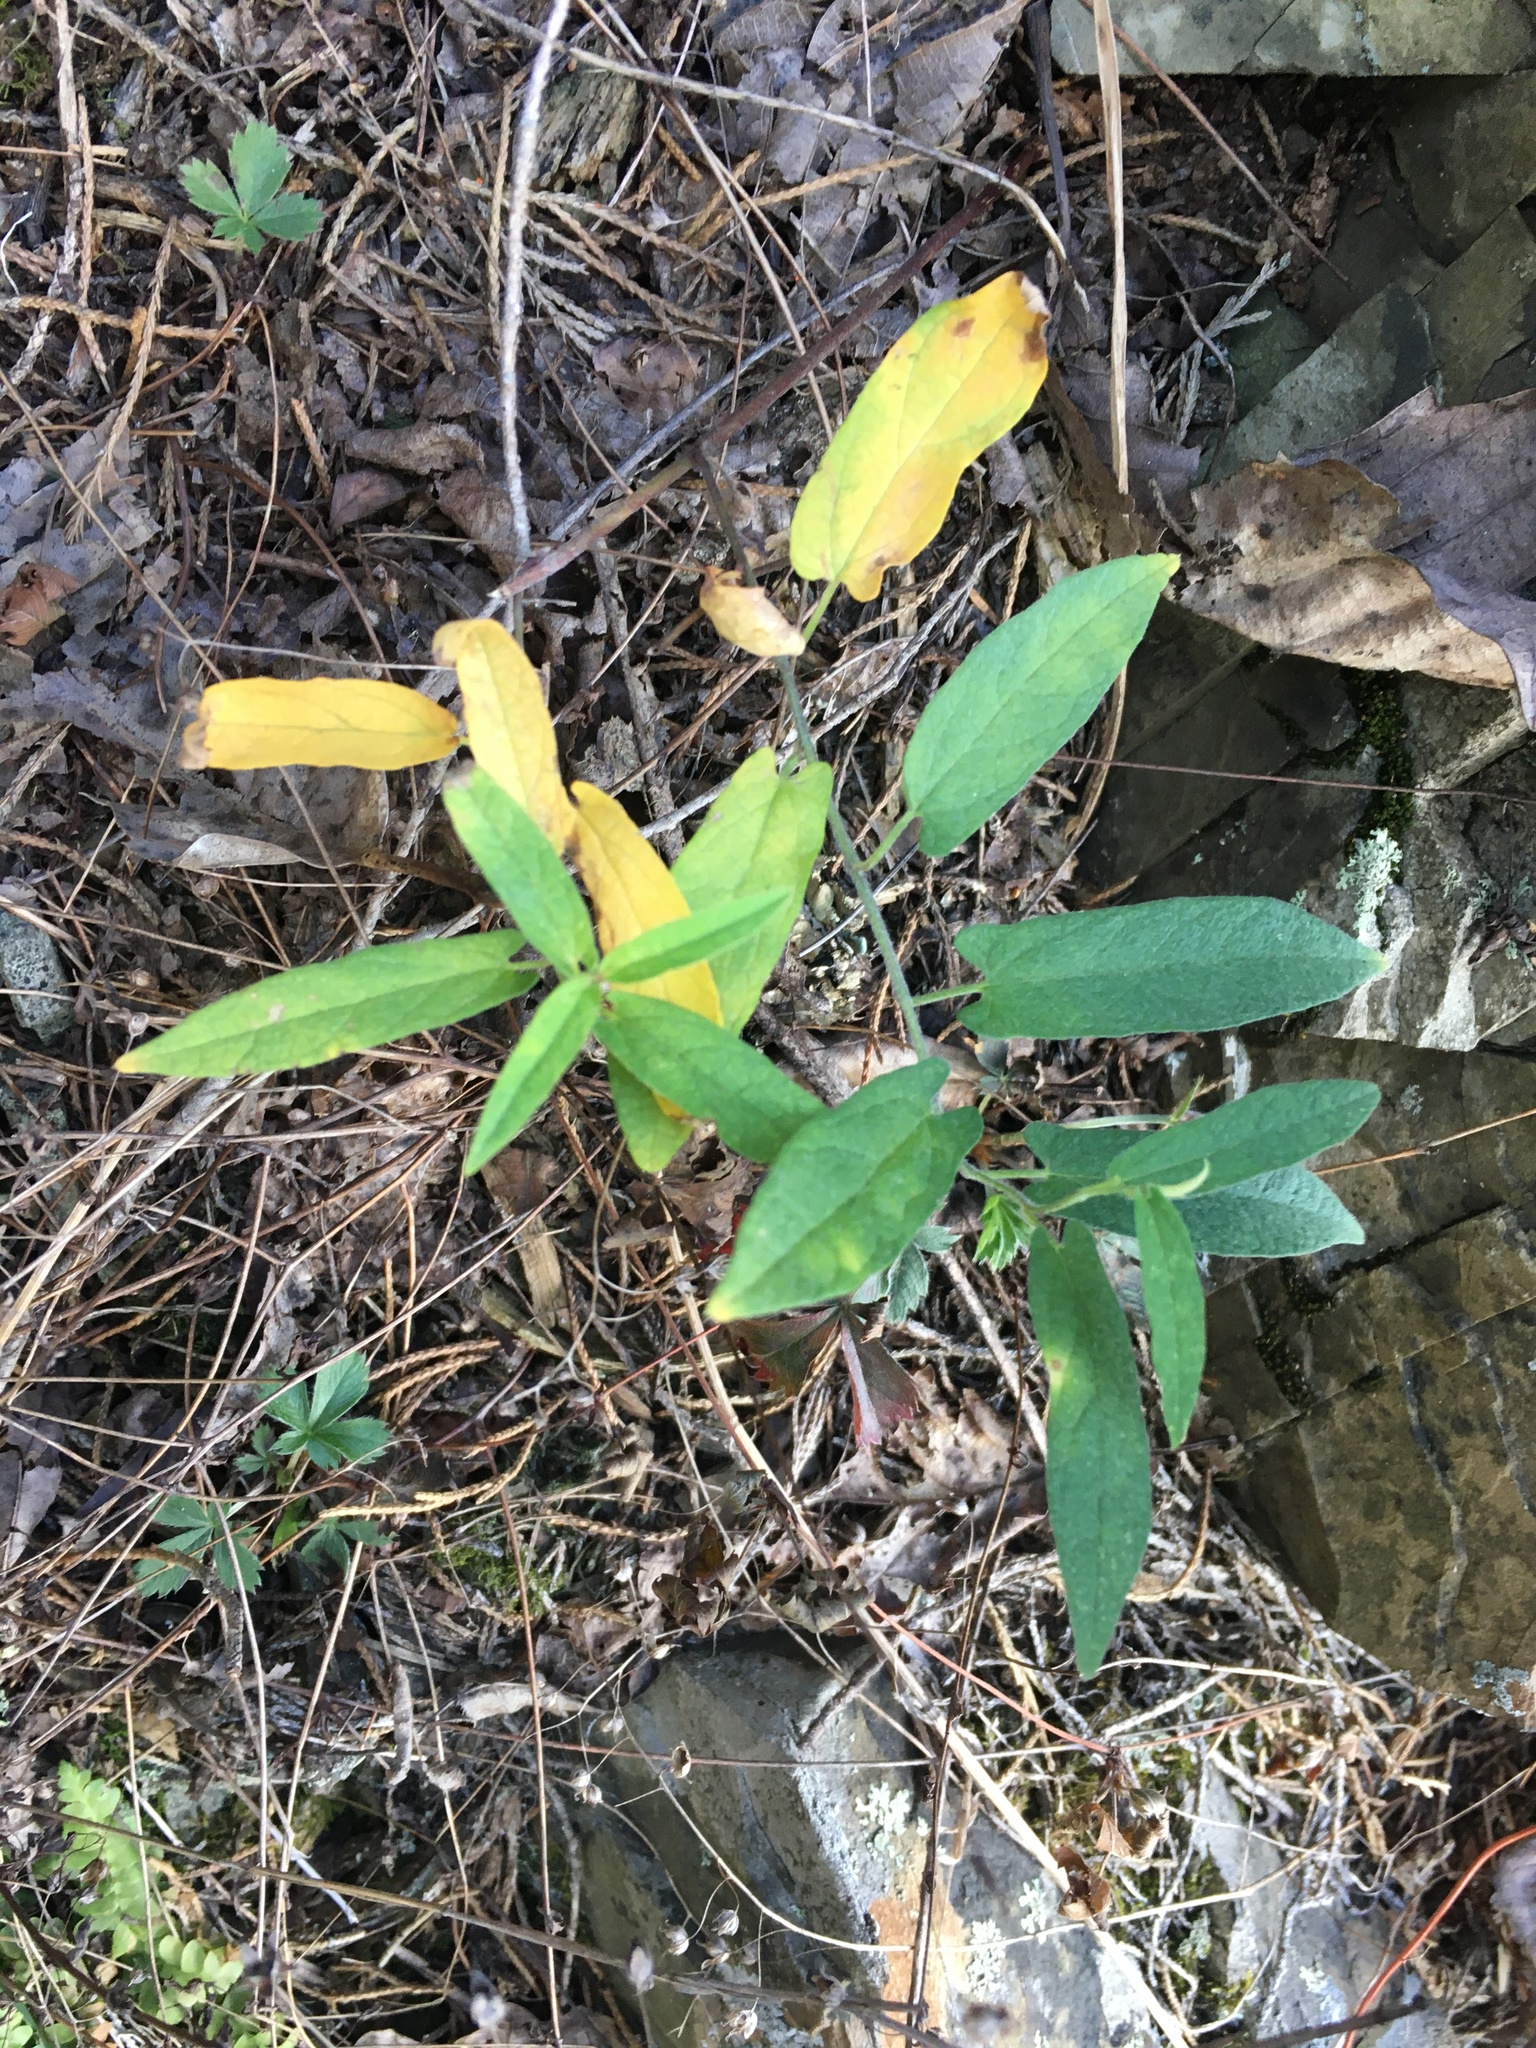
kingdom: Plantae
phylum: Tracheophyta
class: Magnoliopsida
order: Piperales
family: Aristolochiaceae
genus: Endodeca
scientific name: Endodeca serpentaria
